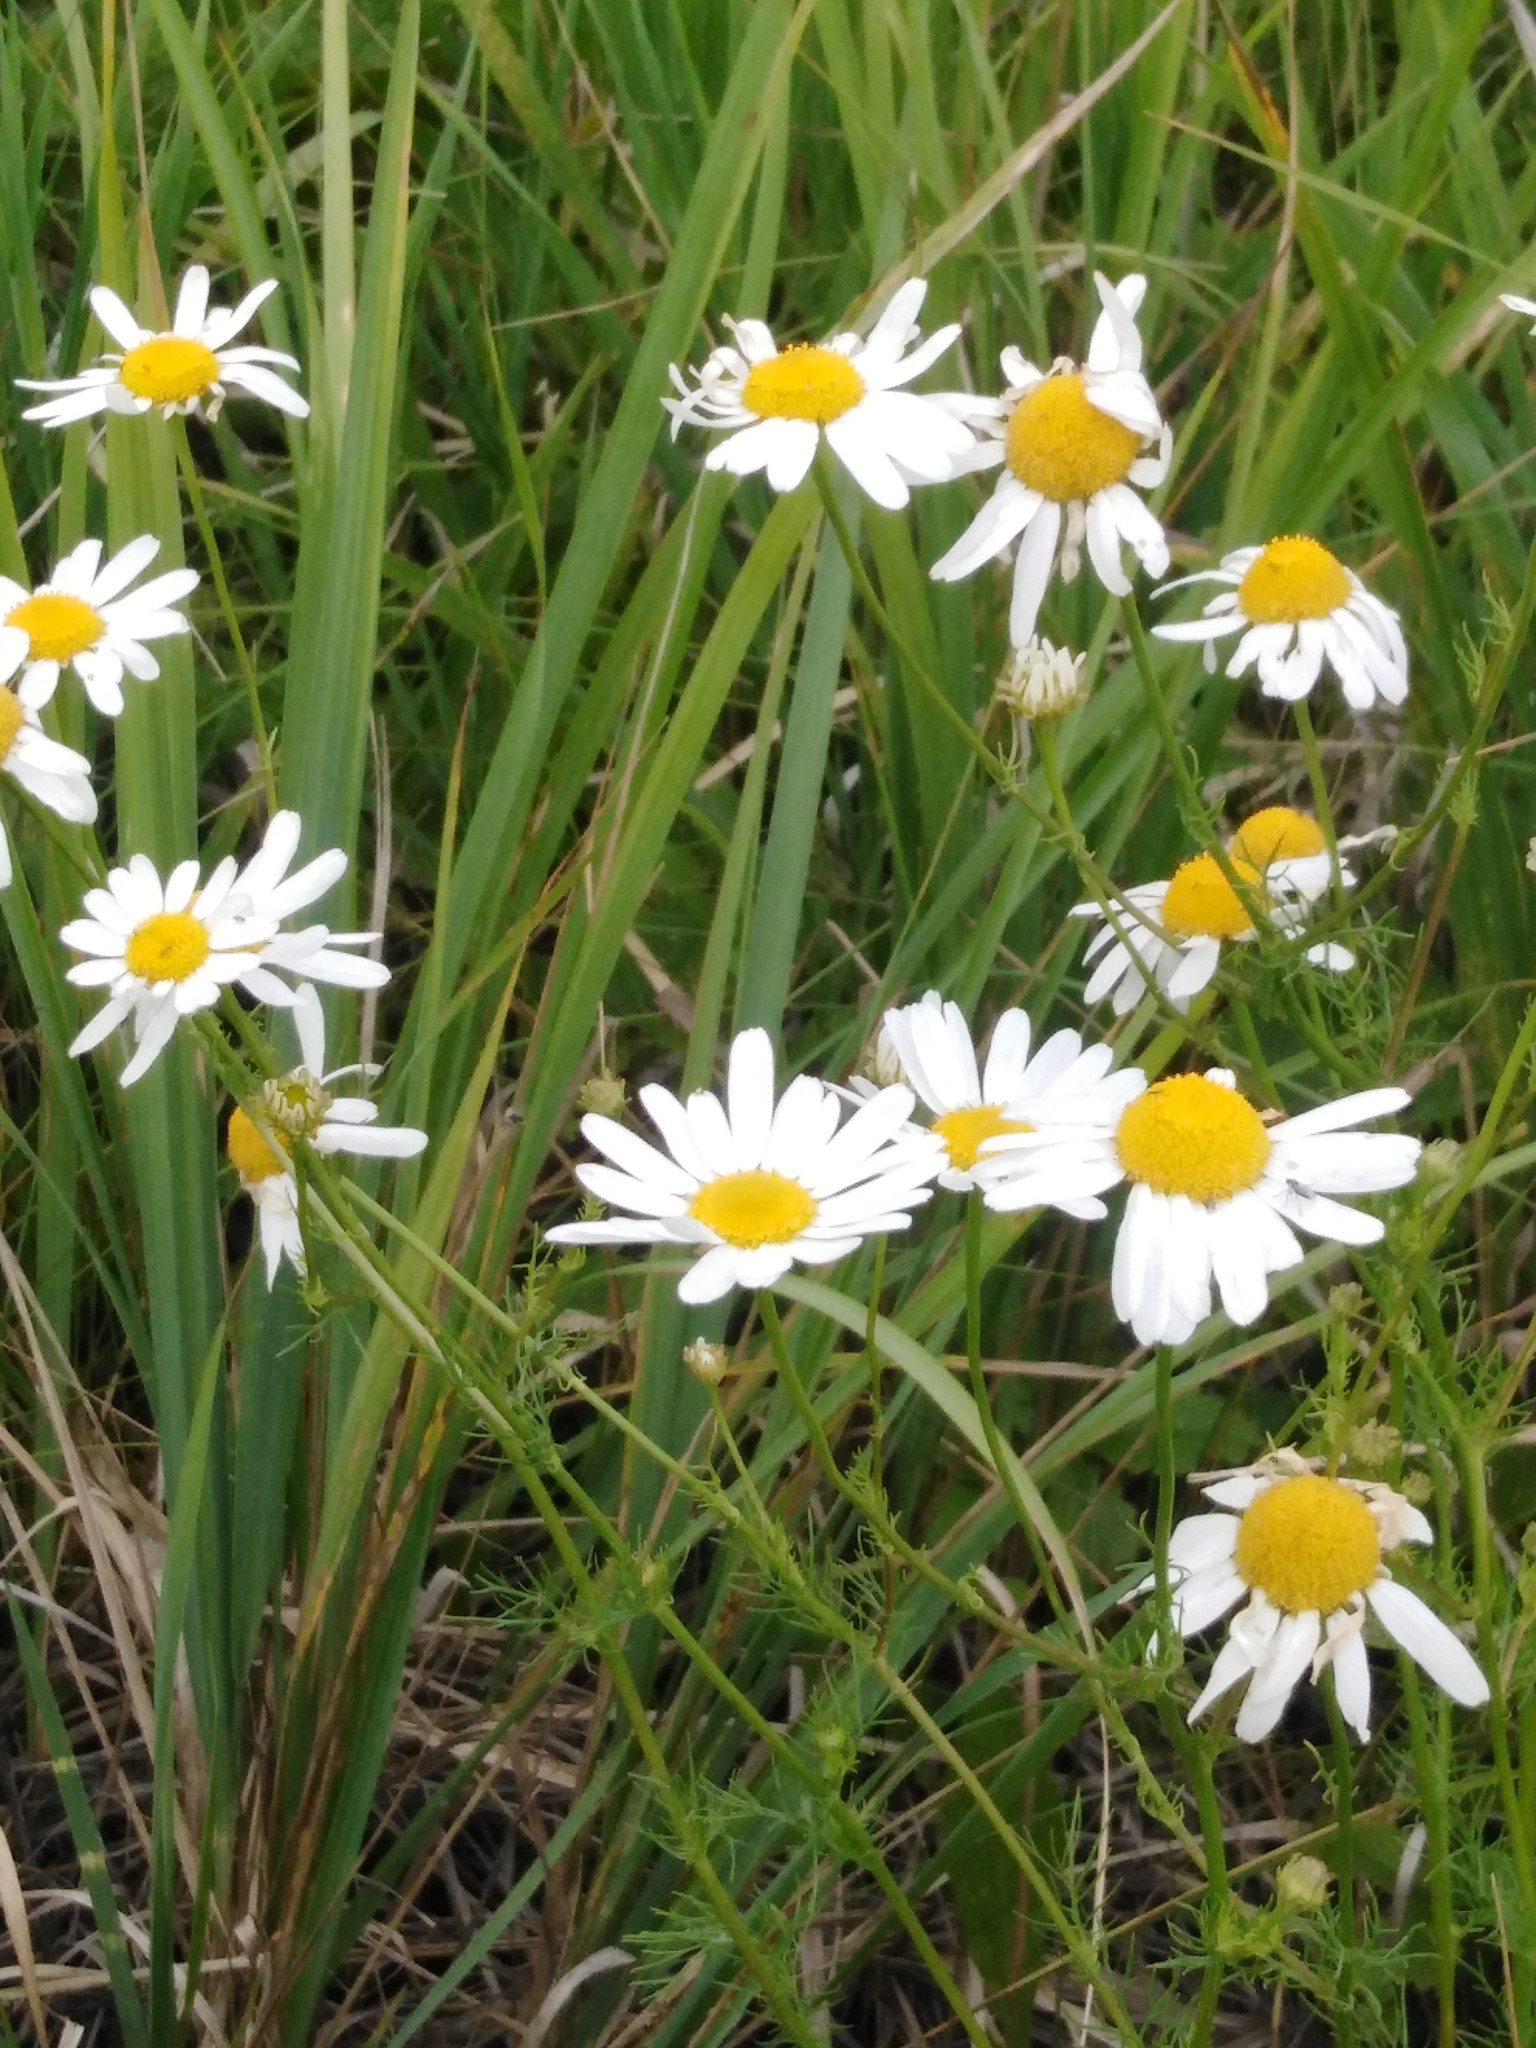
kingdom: Plantae
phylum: Tracheophyta
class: Magnoliopsida
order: Asterales
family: Asteraceae
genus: Tripleurospermum
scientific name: Tripleurospermum inodorum
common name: Scentless mayweed
